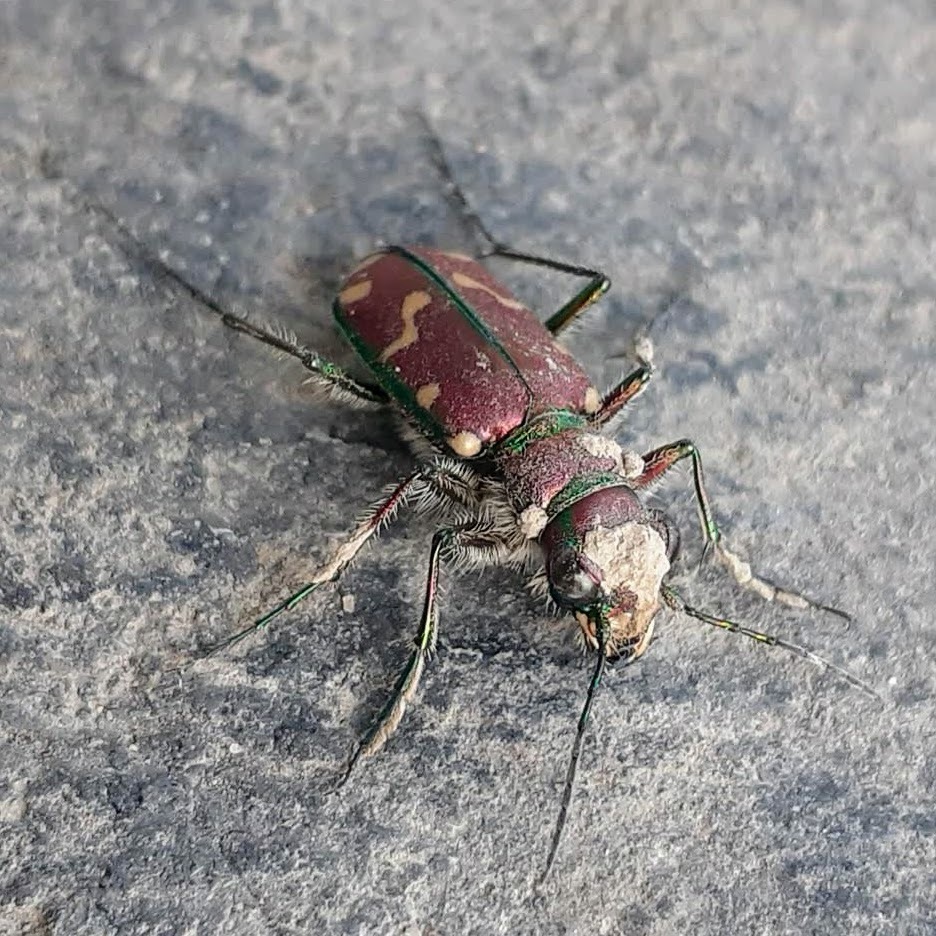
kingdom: Animalia
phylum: Arthropoda
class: Insecta
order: Coleoptera
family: Carabidae
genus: Cicindela
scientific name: Cicindela limbalis
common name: Common claybank tiger beetle
